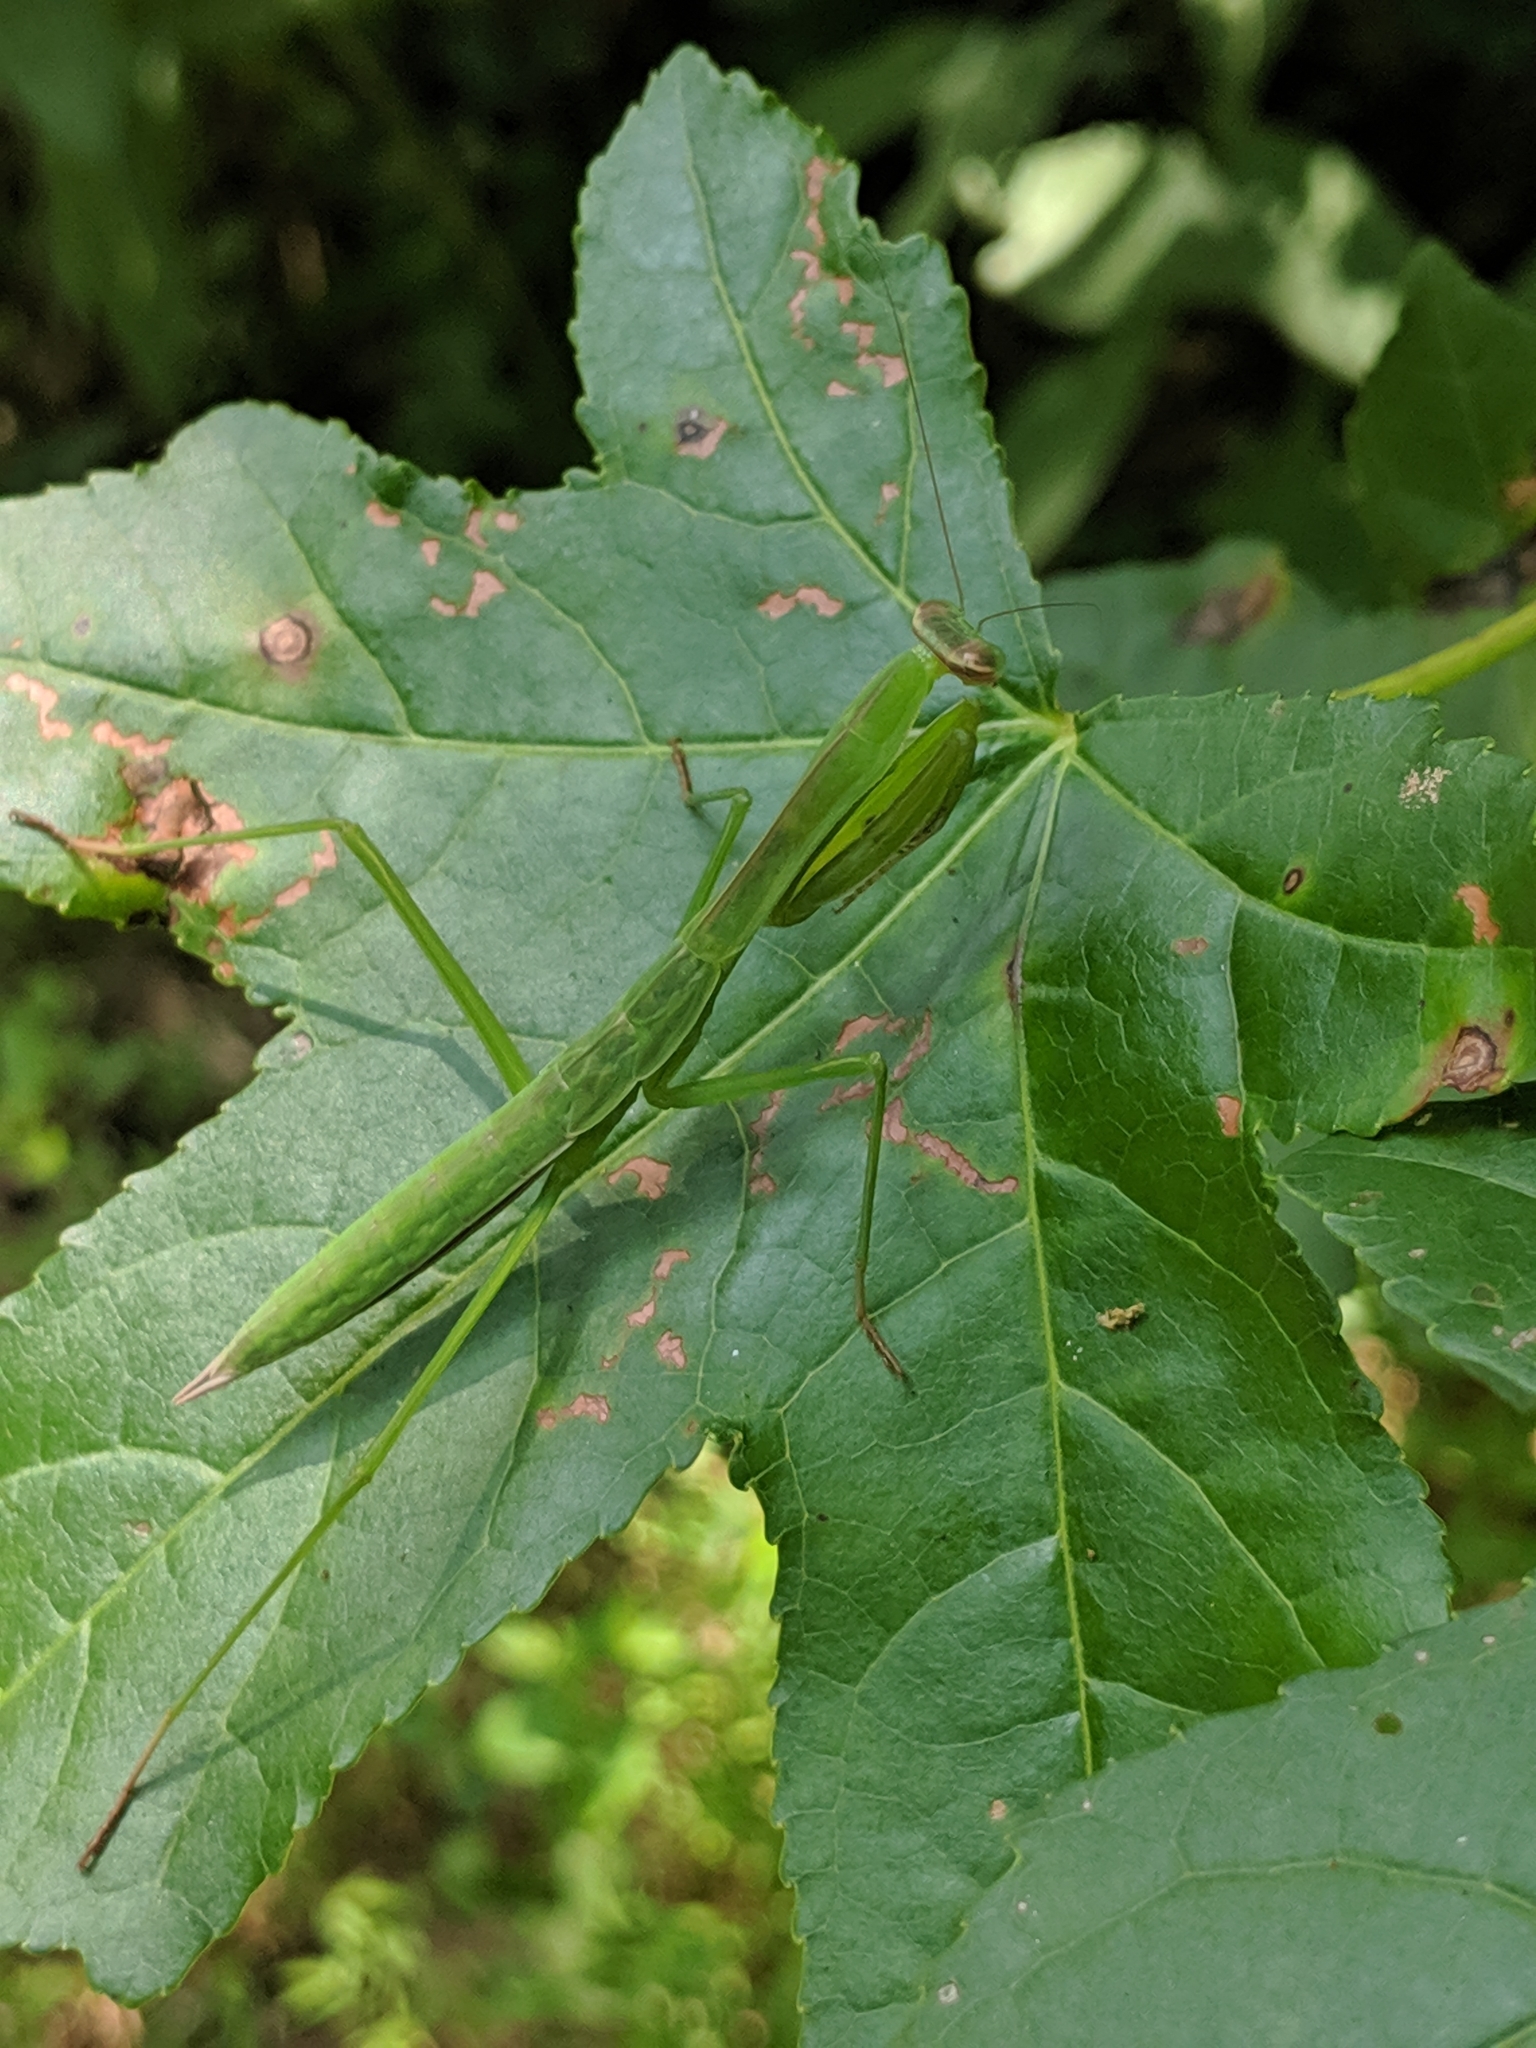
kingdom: Animalia
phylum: Arthropoda
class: Insecta
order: Mantodea
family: Mantidae
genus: Tenodera
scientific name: Tenodera sinensis
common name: Chinese mantis
